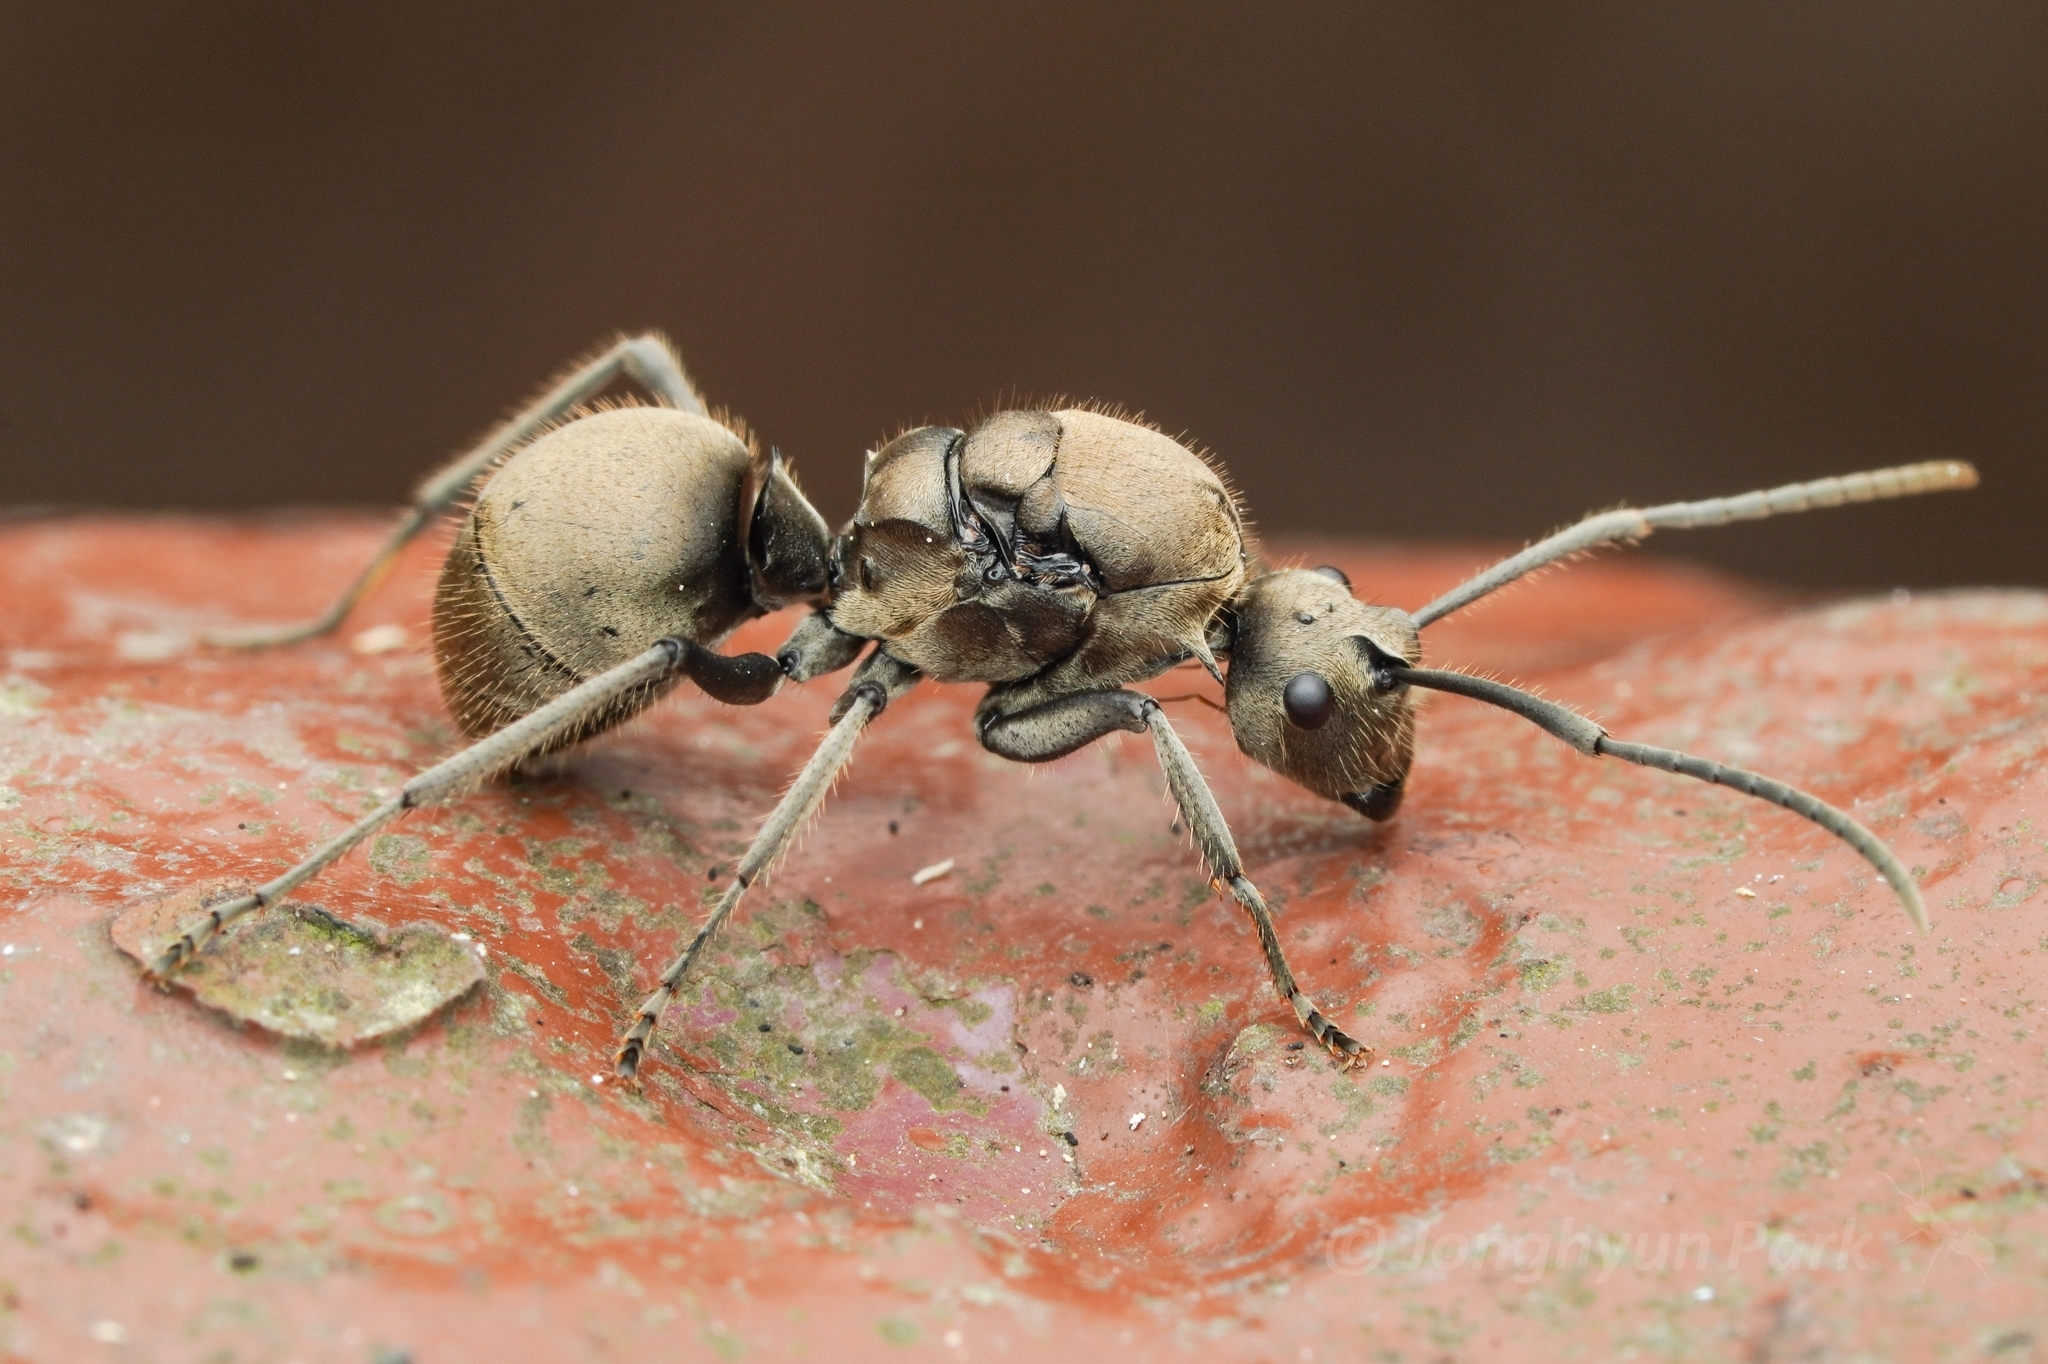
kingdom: Animalia
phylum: Arthropoda
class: Insecta
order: Hymenoptera
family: Formicidae
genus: Polyrhachis
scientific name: Polyrhachis illaudata
